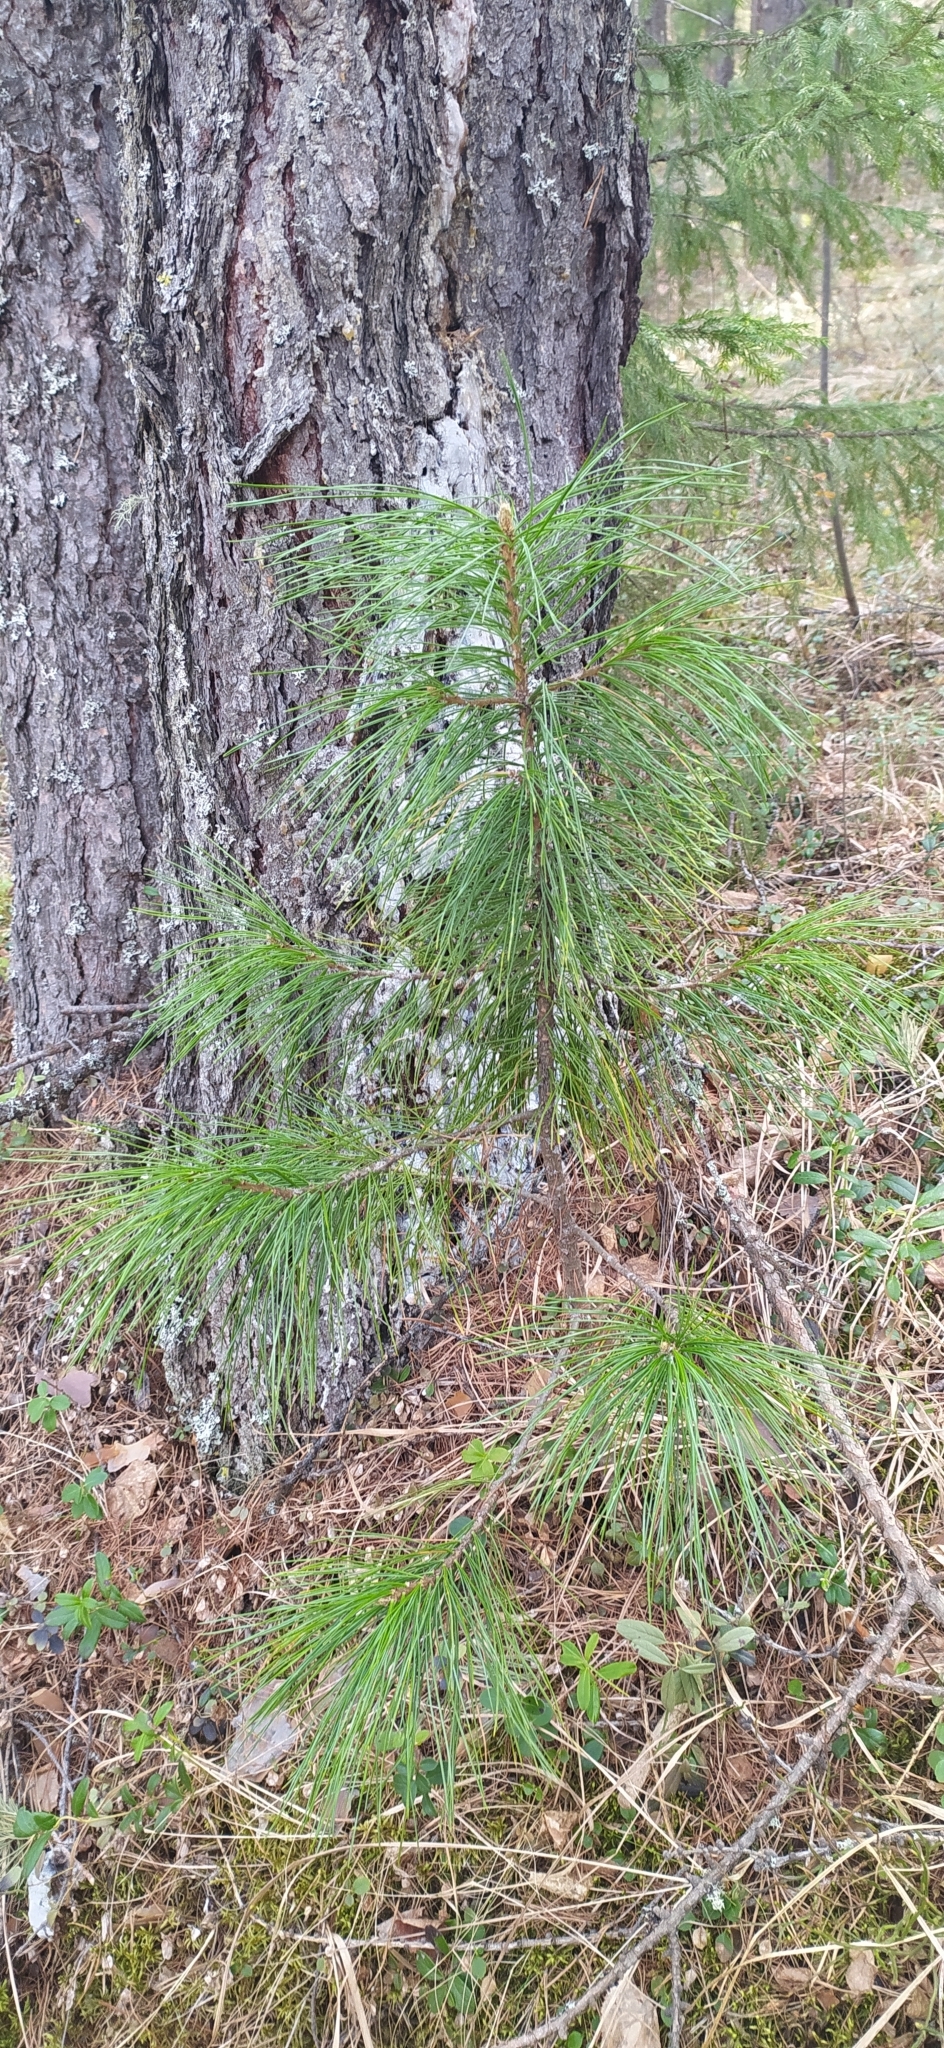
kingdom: Plantae
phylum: Tracheophyta
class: Pinopsida
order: Pinales
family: Pinaceae
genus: Pinus
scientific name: Pinus sibirica
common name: Siberian pine
